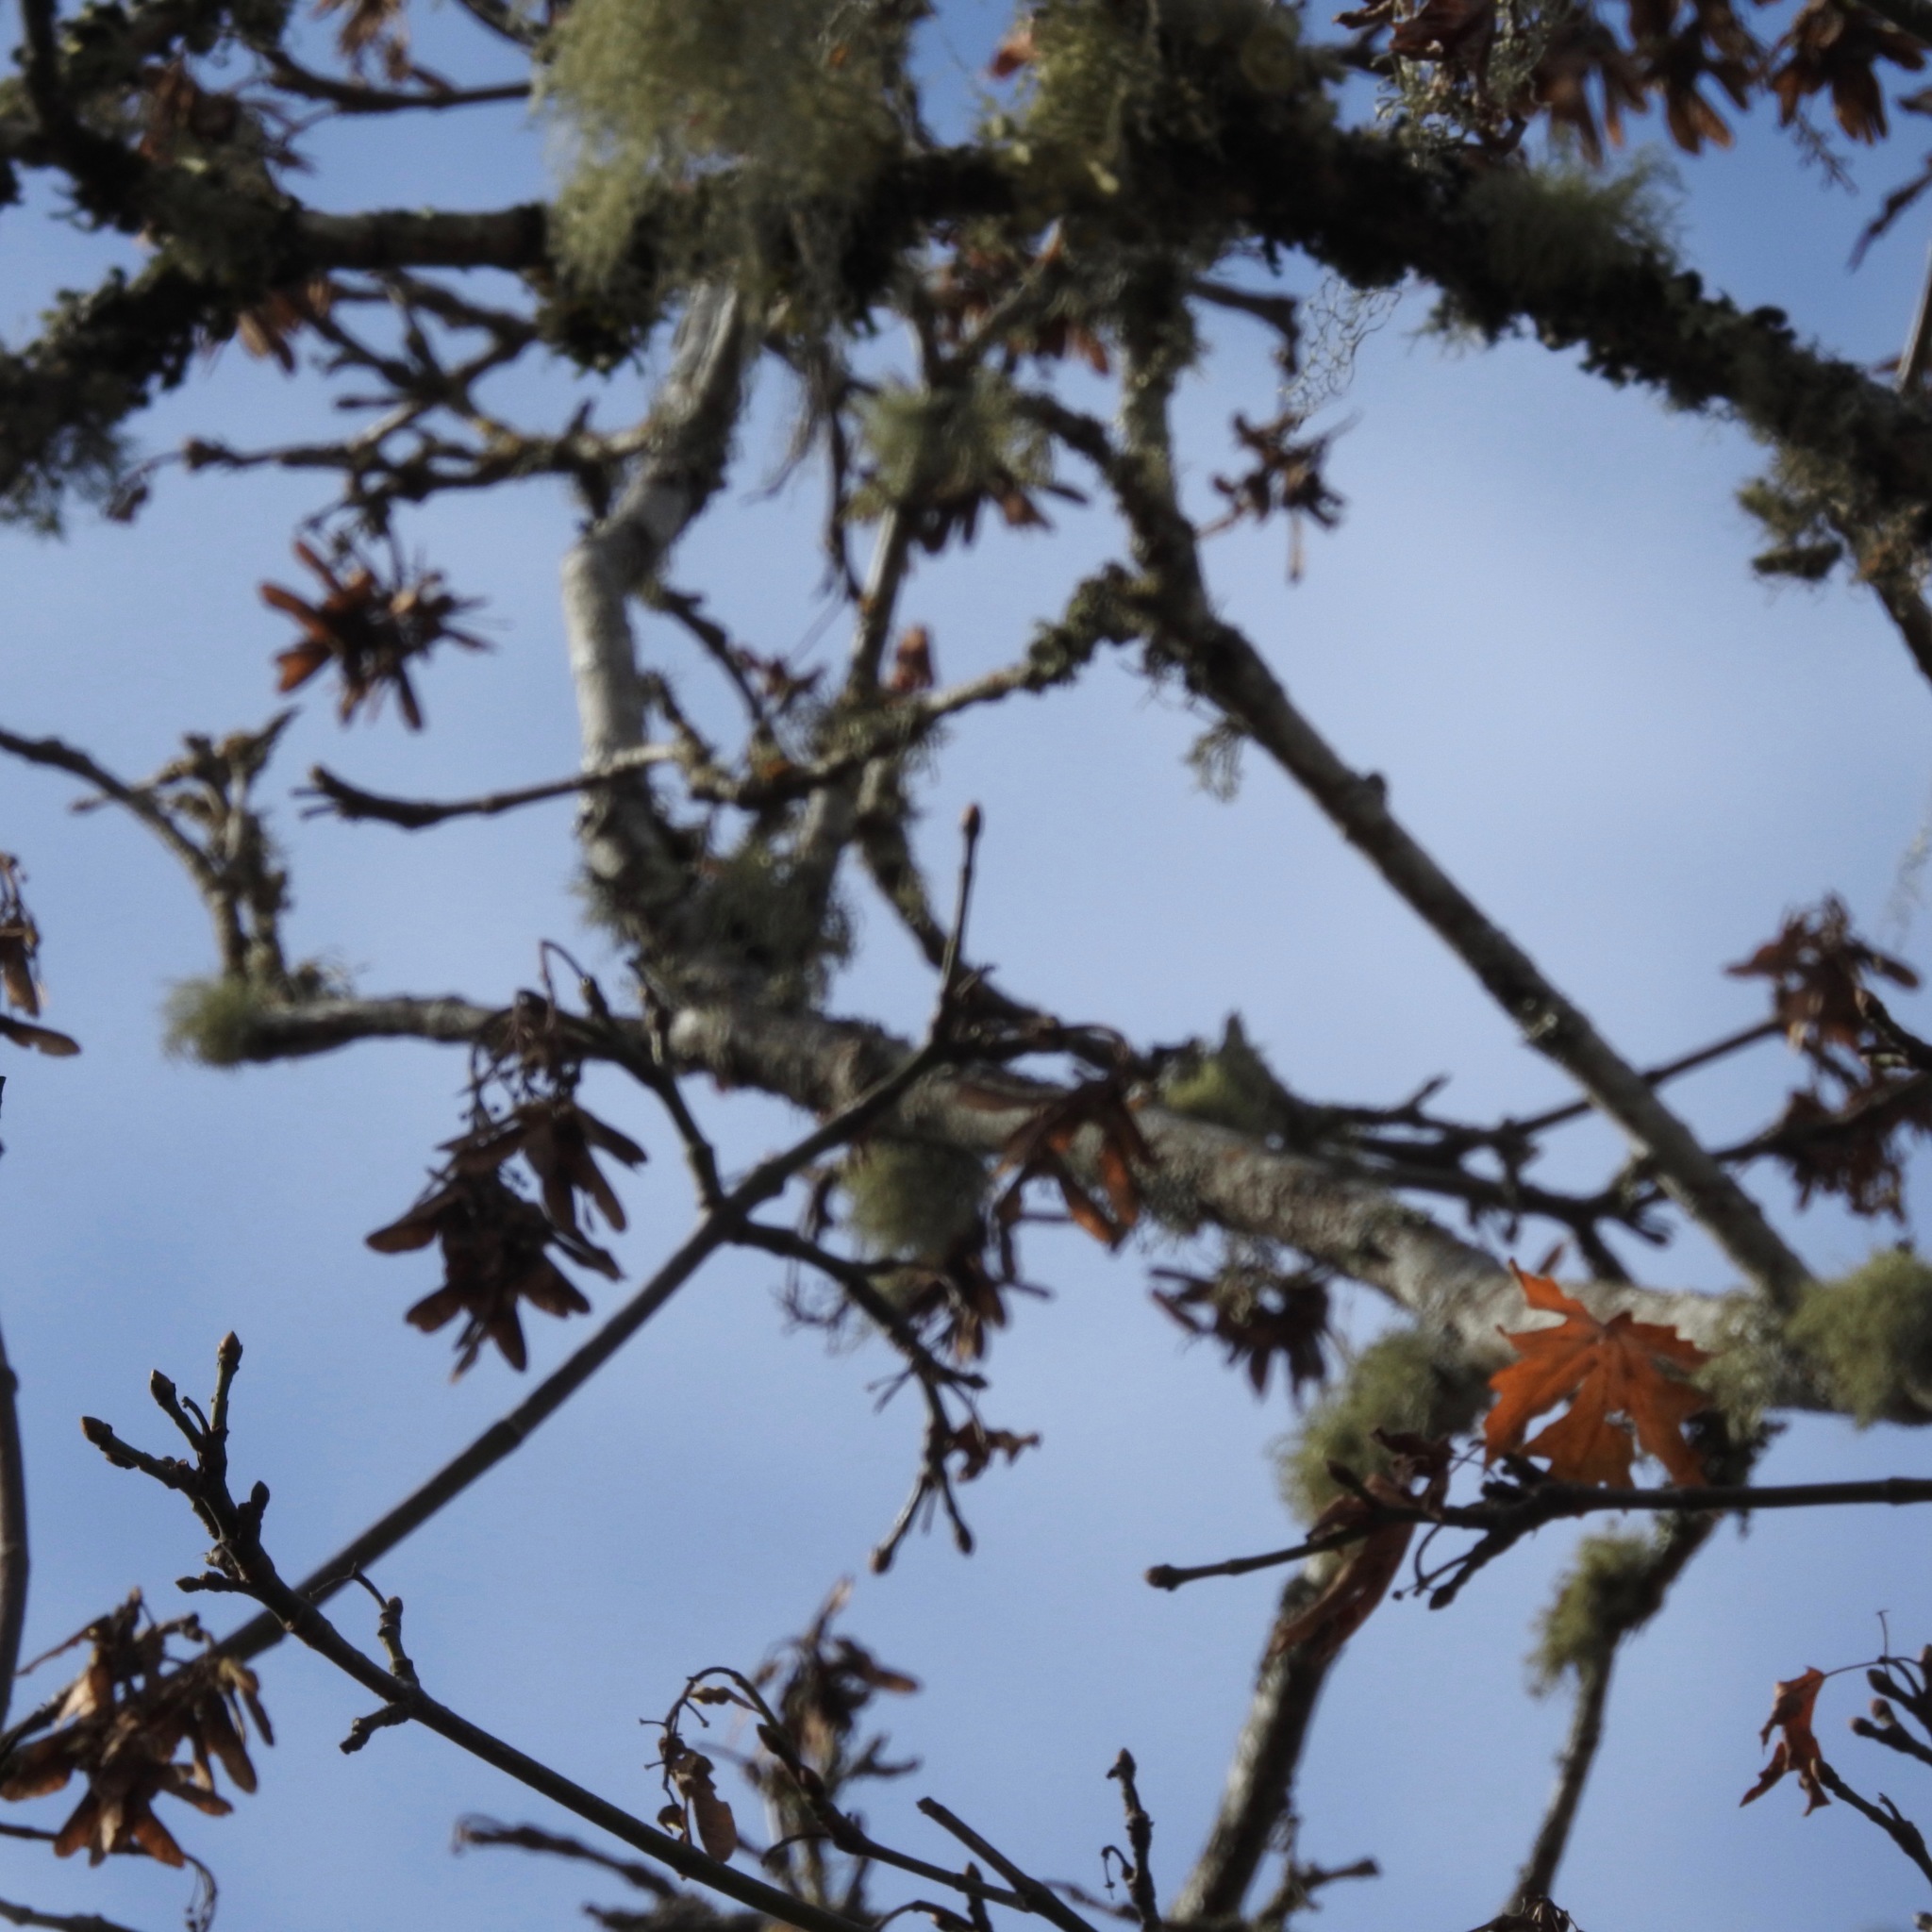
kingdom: Plantae
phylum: Tracheophyta
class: Magnoliopsida
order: Sapindales
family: Sapindaceae
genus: Acer
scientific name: Acer macrophyllum
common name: Oregon maple
